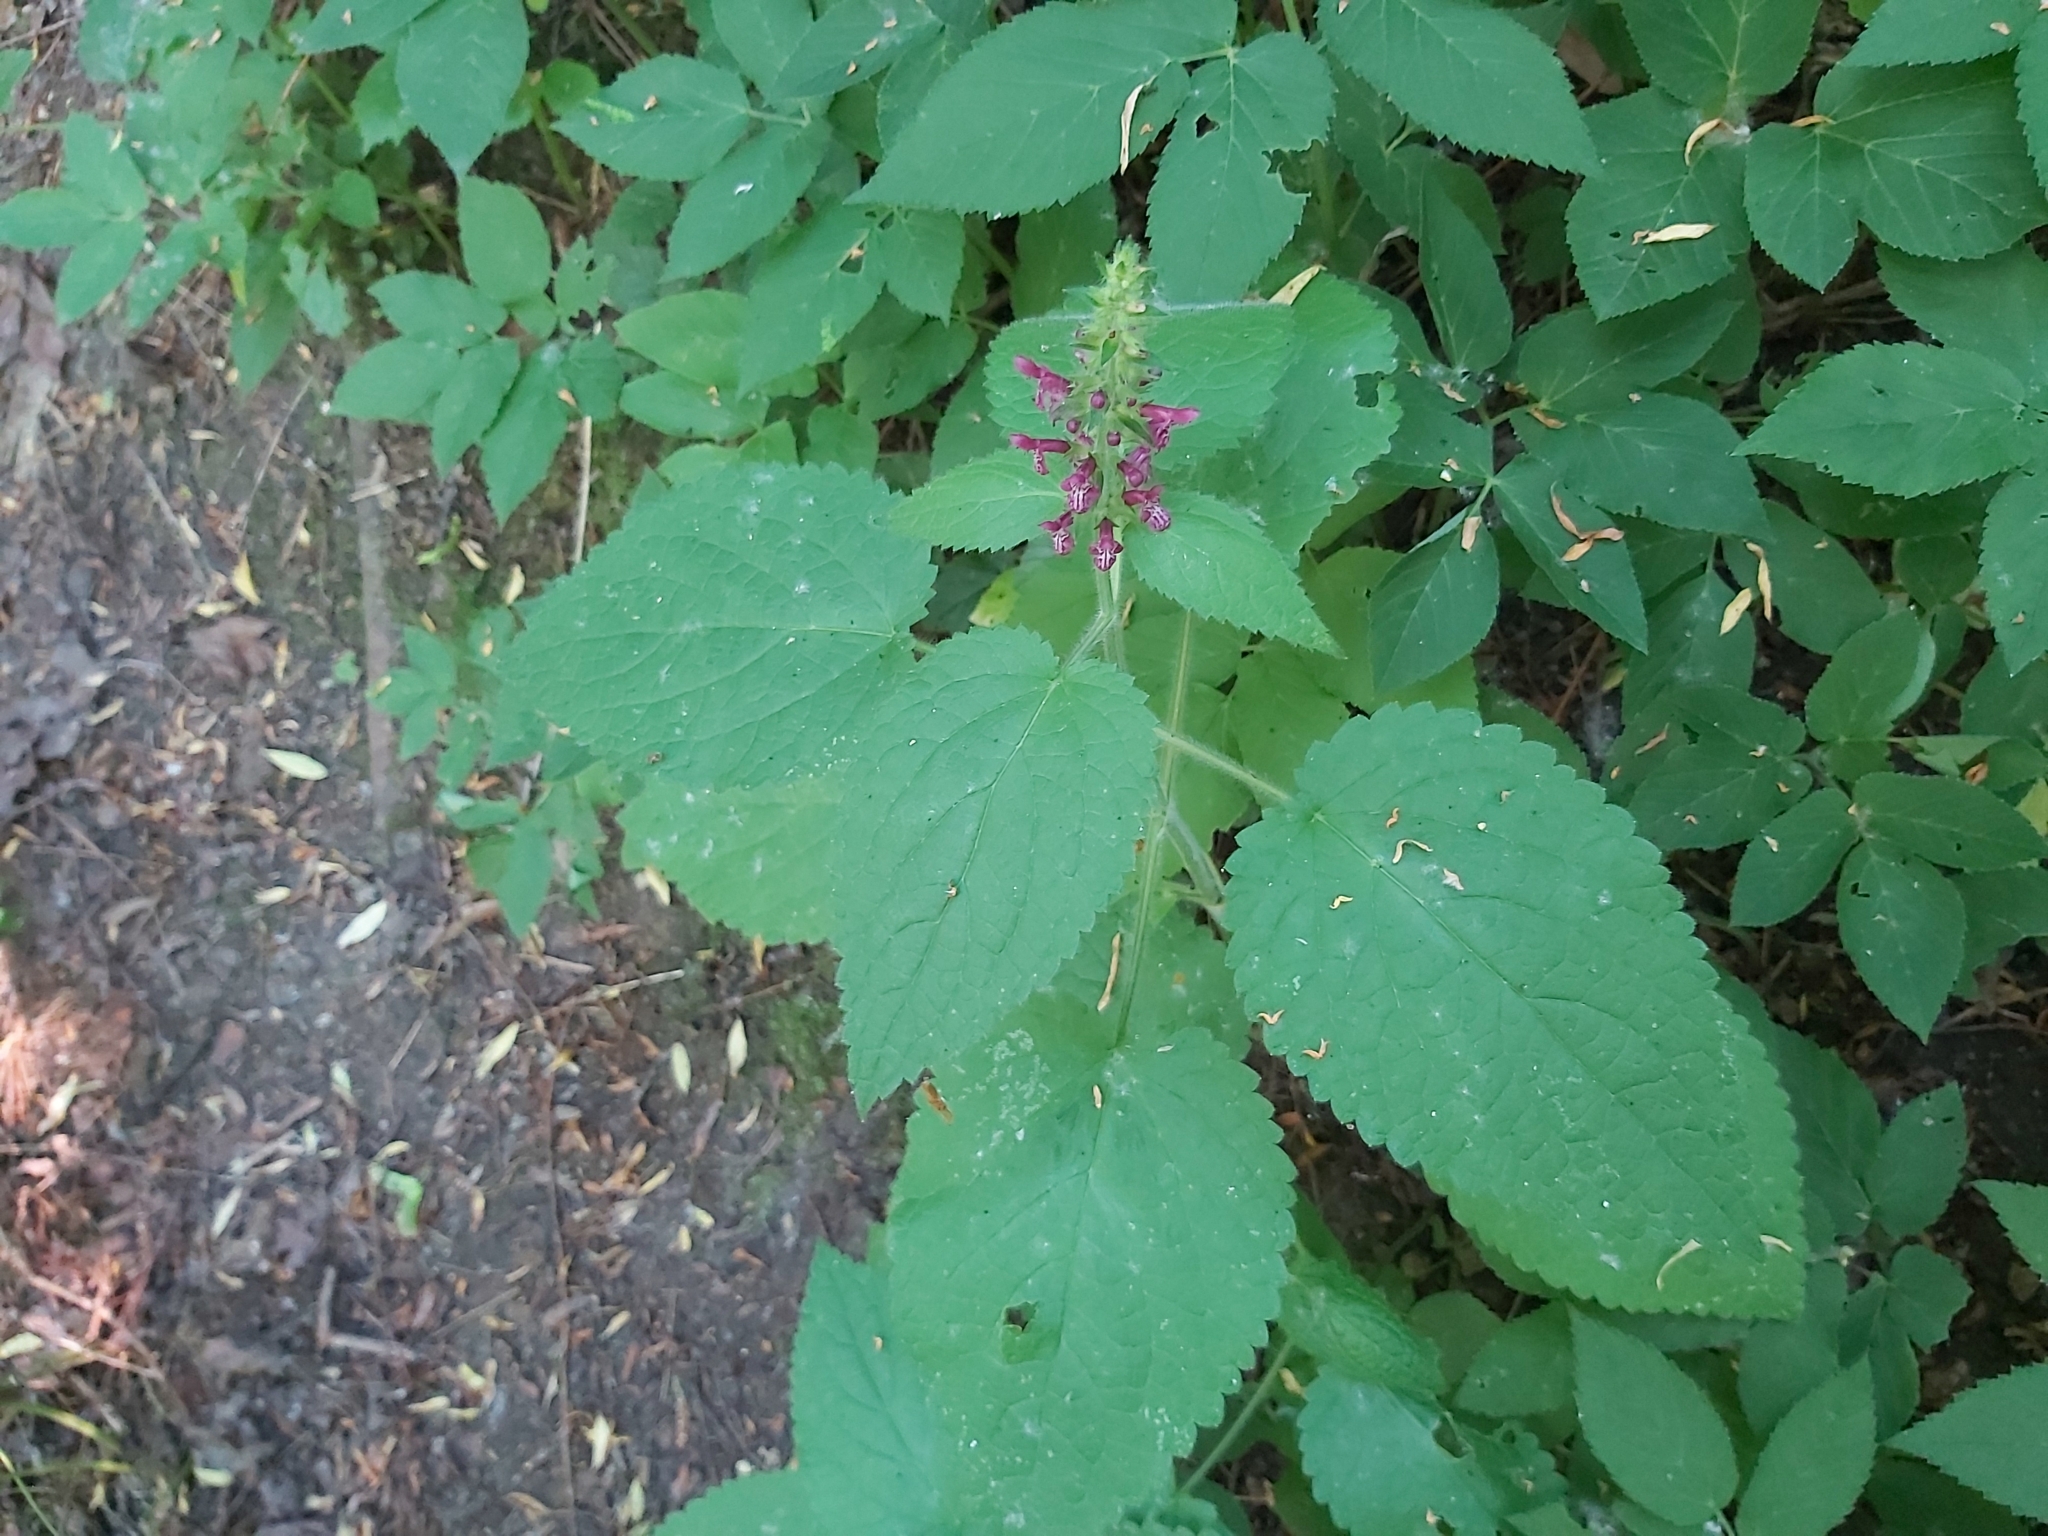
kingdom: Plantae
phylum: Tracheophyta
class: Magnoliopsida
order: Lamiales
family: Lamiaceae
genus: Stachys
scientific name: Stachys sylvatica
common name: Hedge woundwort
